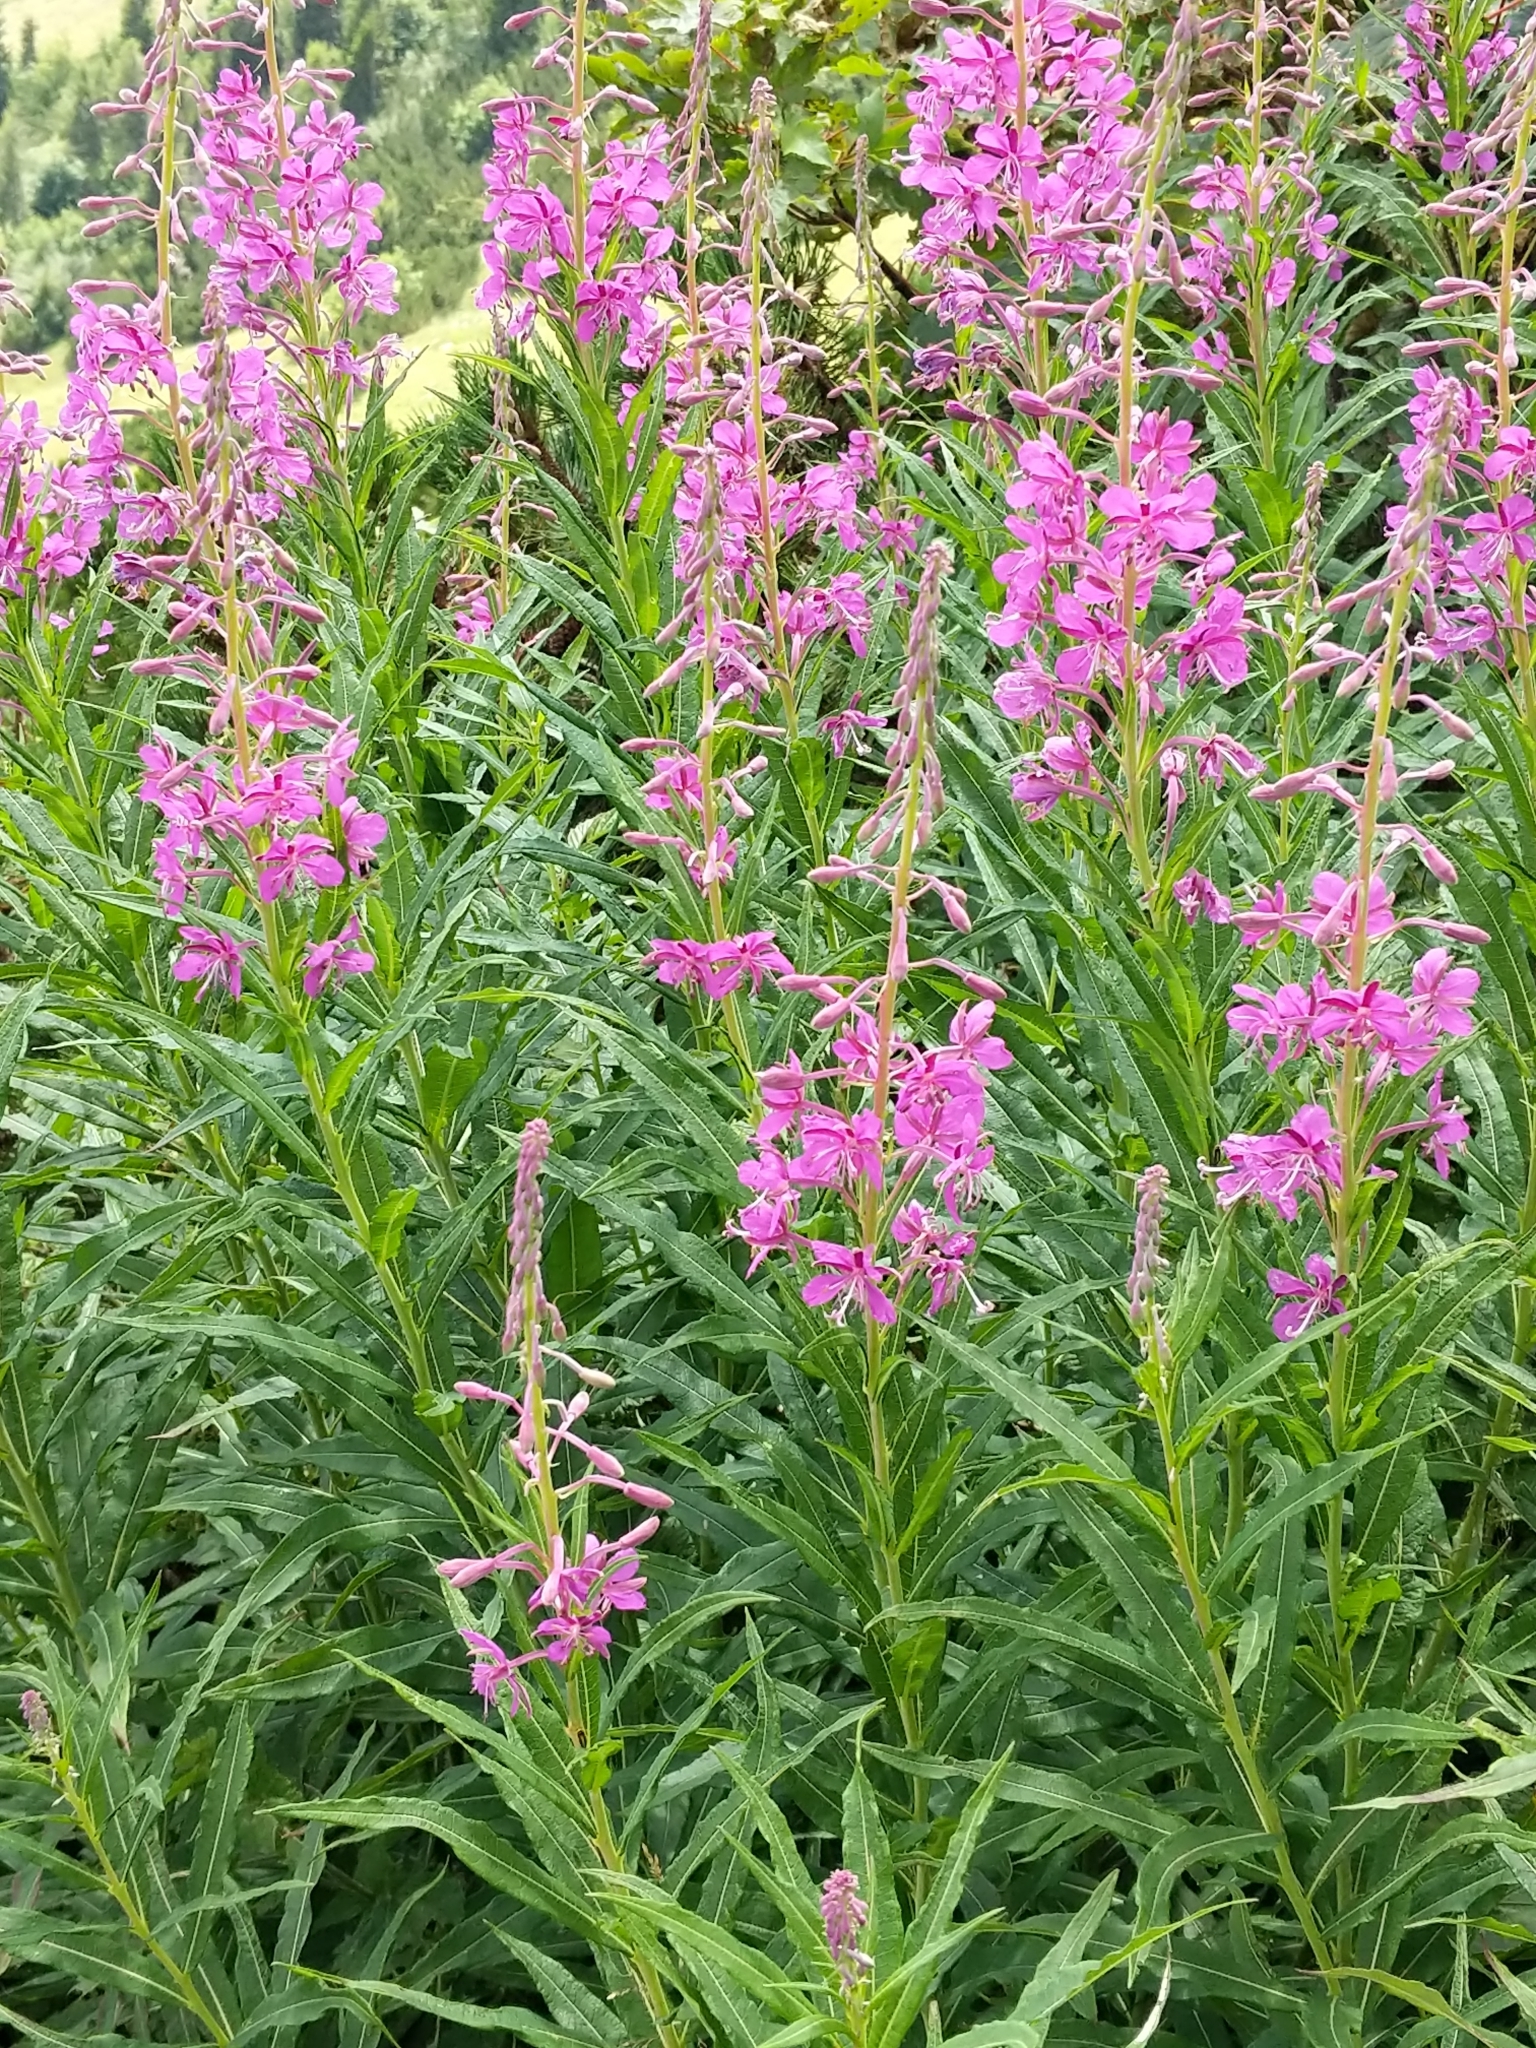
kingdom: Plantae
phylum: Tracheophyta
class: Magnoliopsida
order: Myrtales
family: Onagraceae
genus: Chamaenerion
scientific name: Chamaenerion angustifolium
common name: Fireweed
